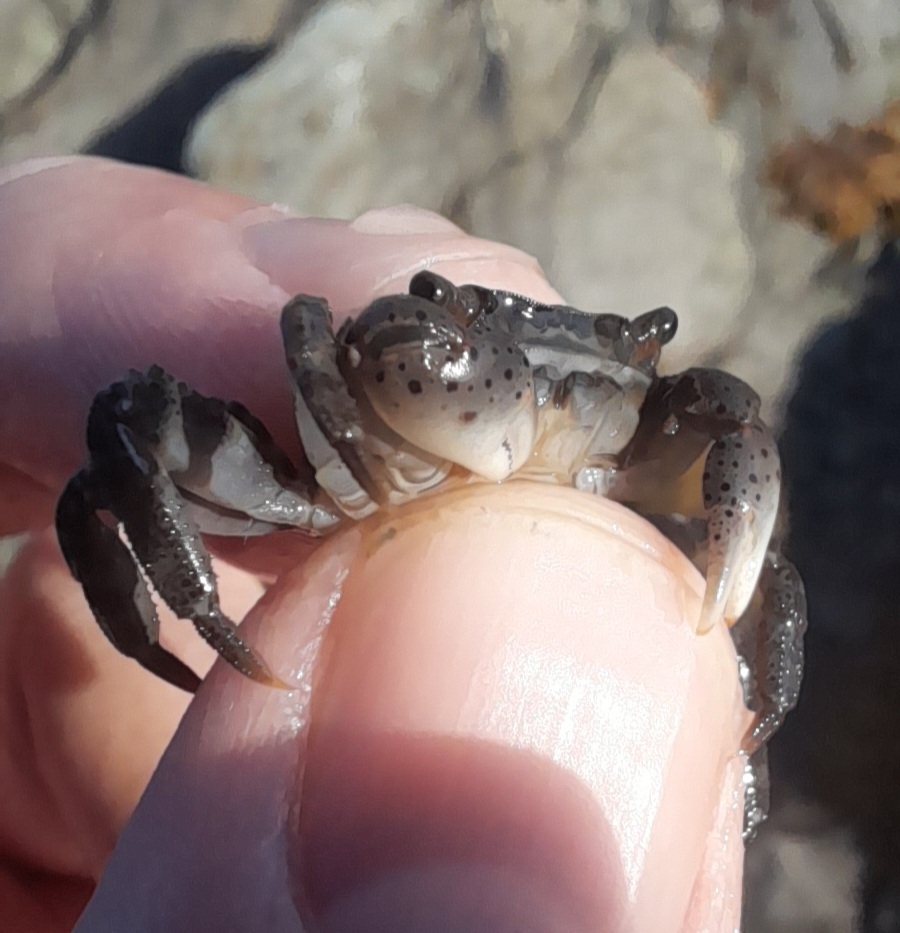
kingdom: Animalia
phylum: Arthropoda
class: Malacostraca
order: Decapoda
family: Varunidae
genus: Hemigrapsus
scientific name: Hemigrapsus sanguineus
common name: Asian shore crab
